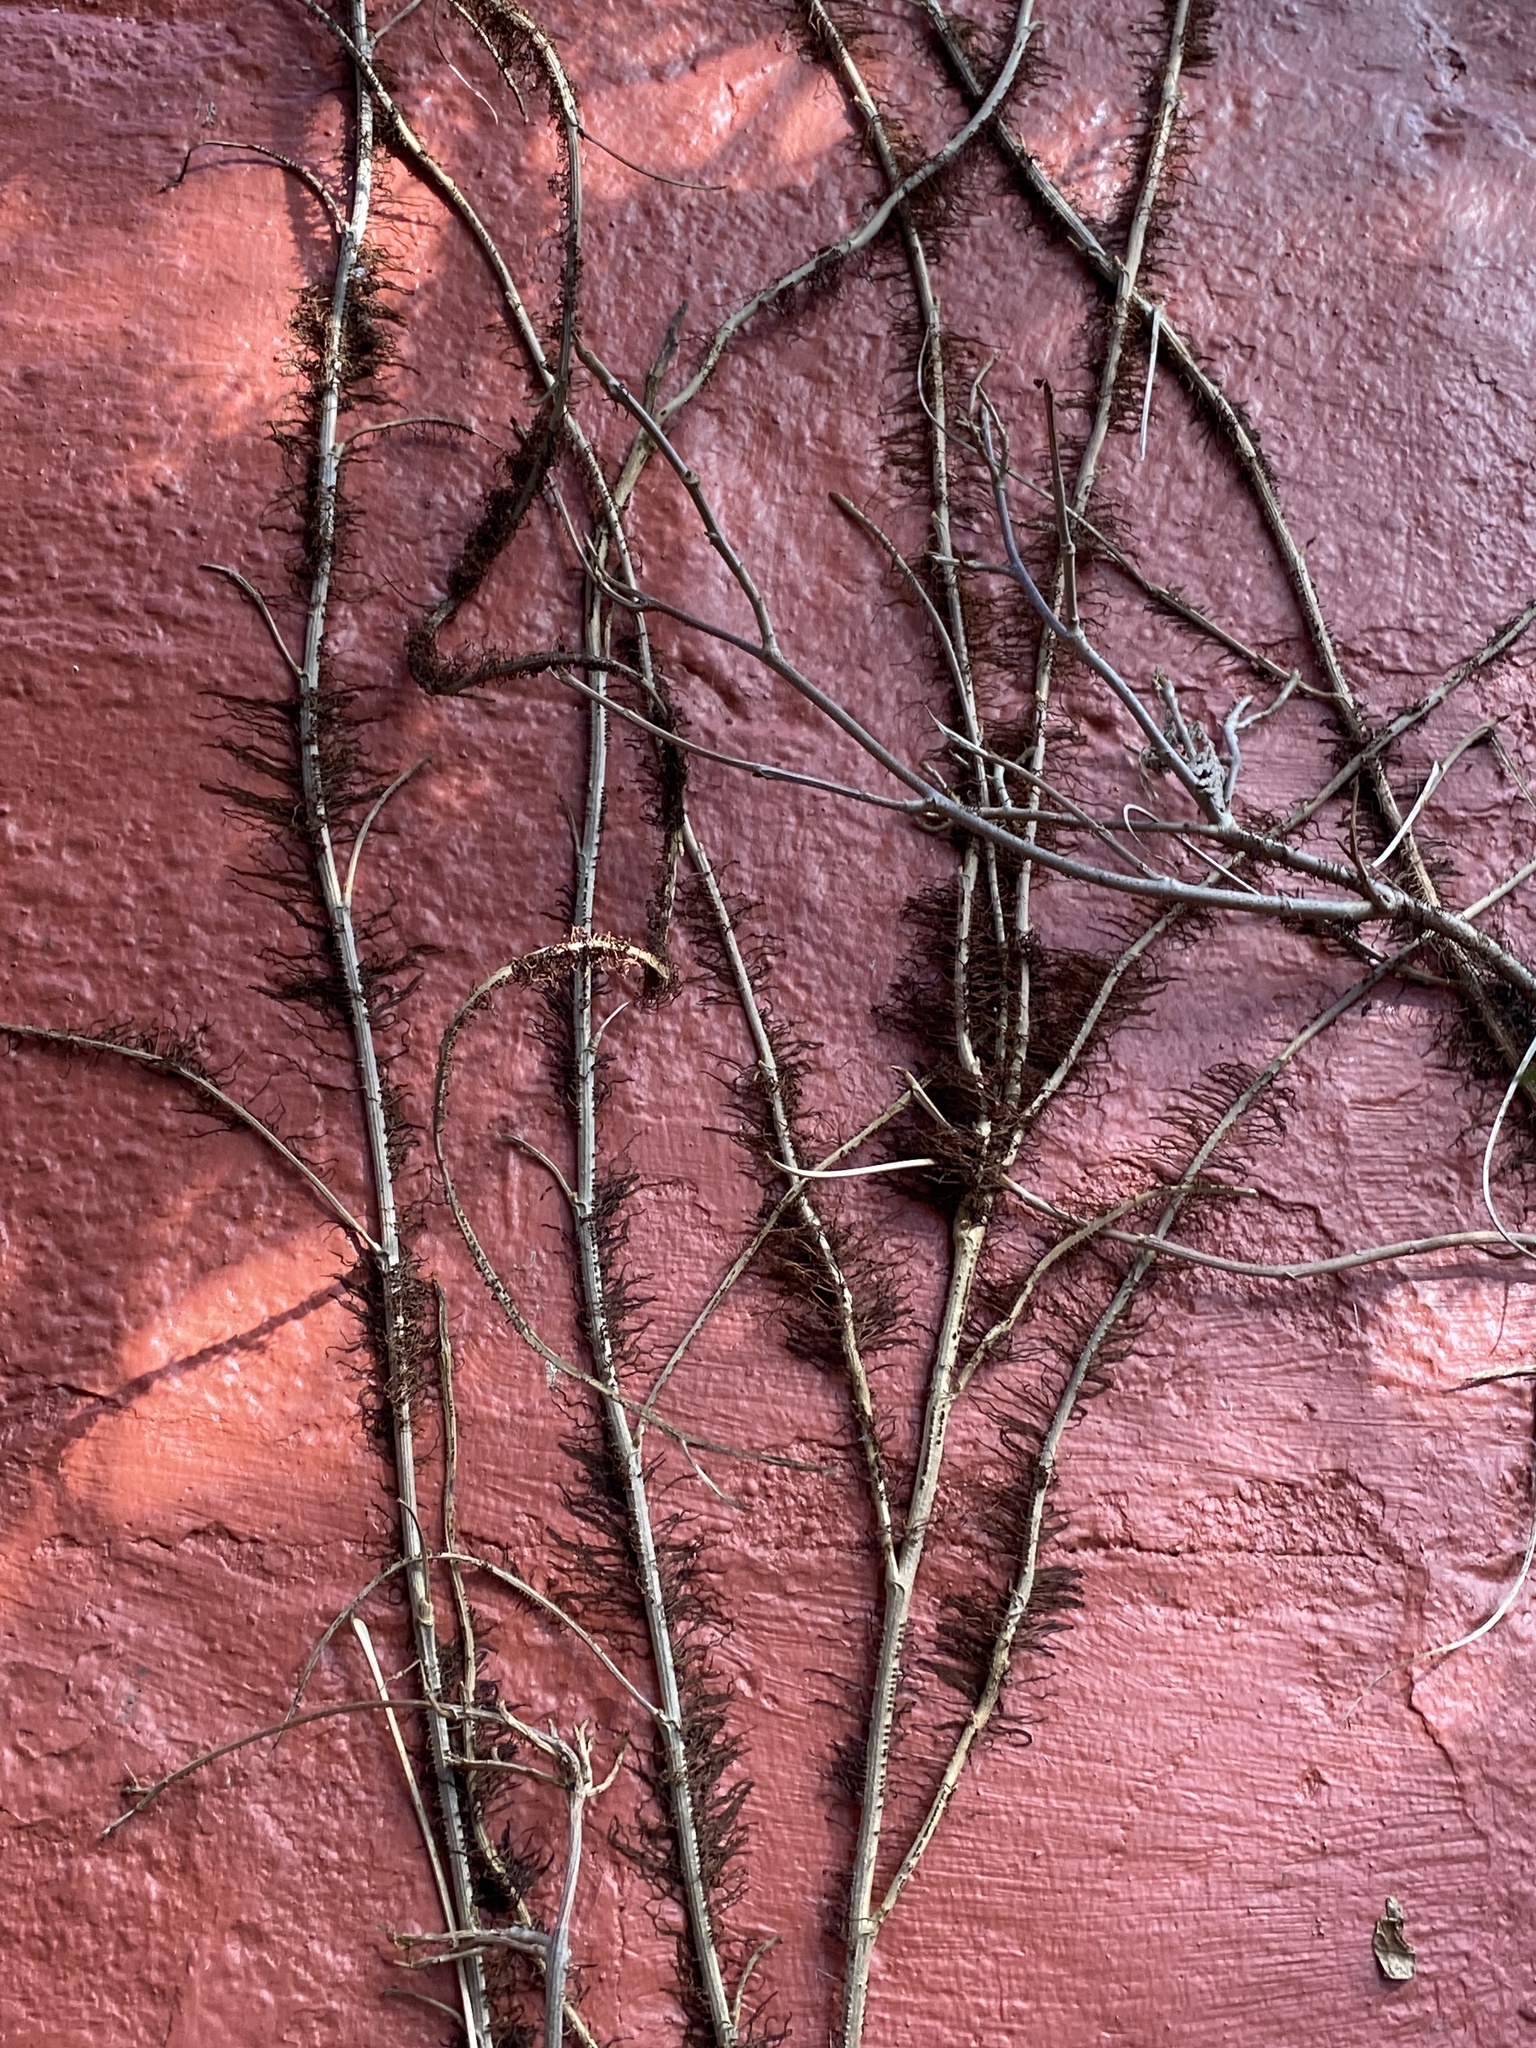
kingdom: Plantae
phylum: Tracheophyta
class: Magnoliopsida
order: Sapindales
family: Anacardiaceae
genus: Toxicodendron
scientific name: Toxicodendron radicans
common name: Poison ivy
